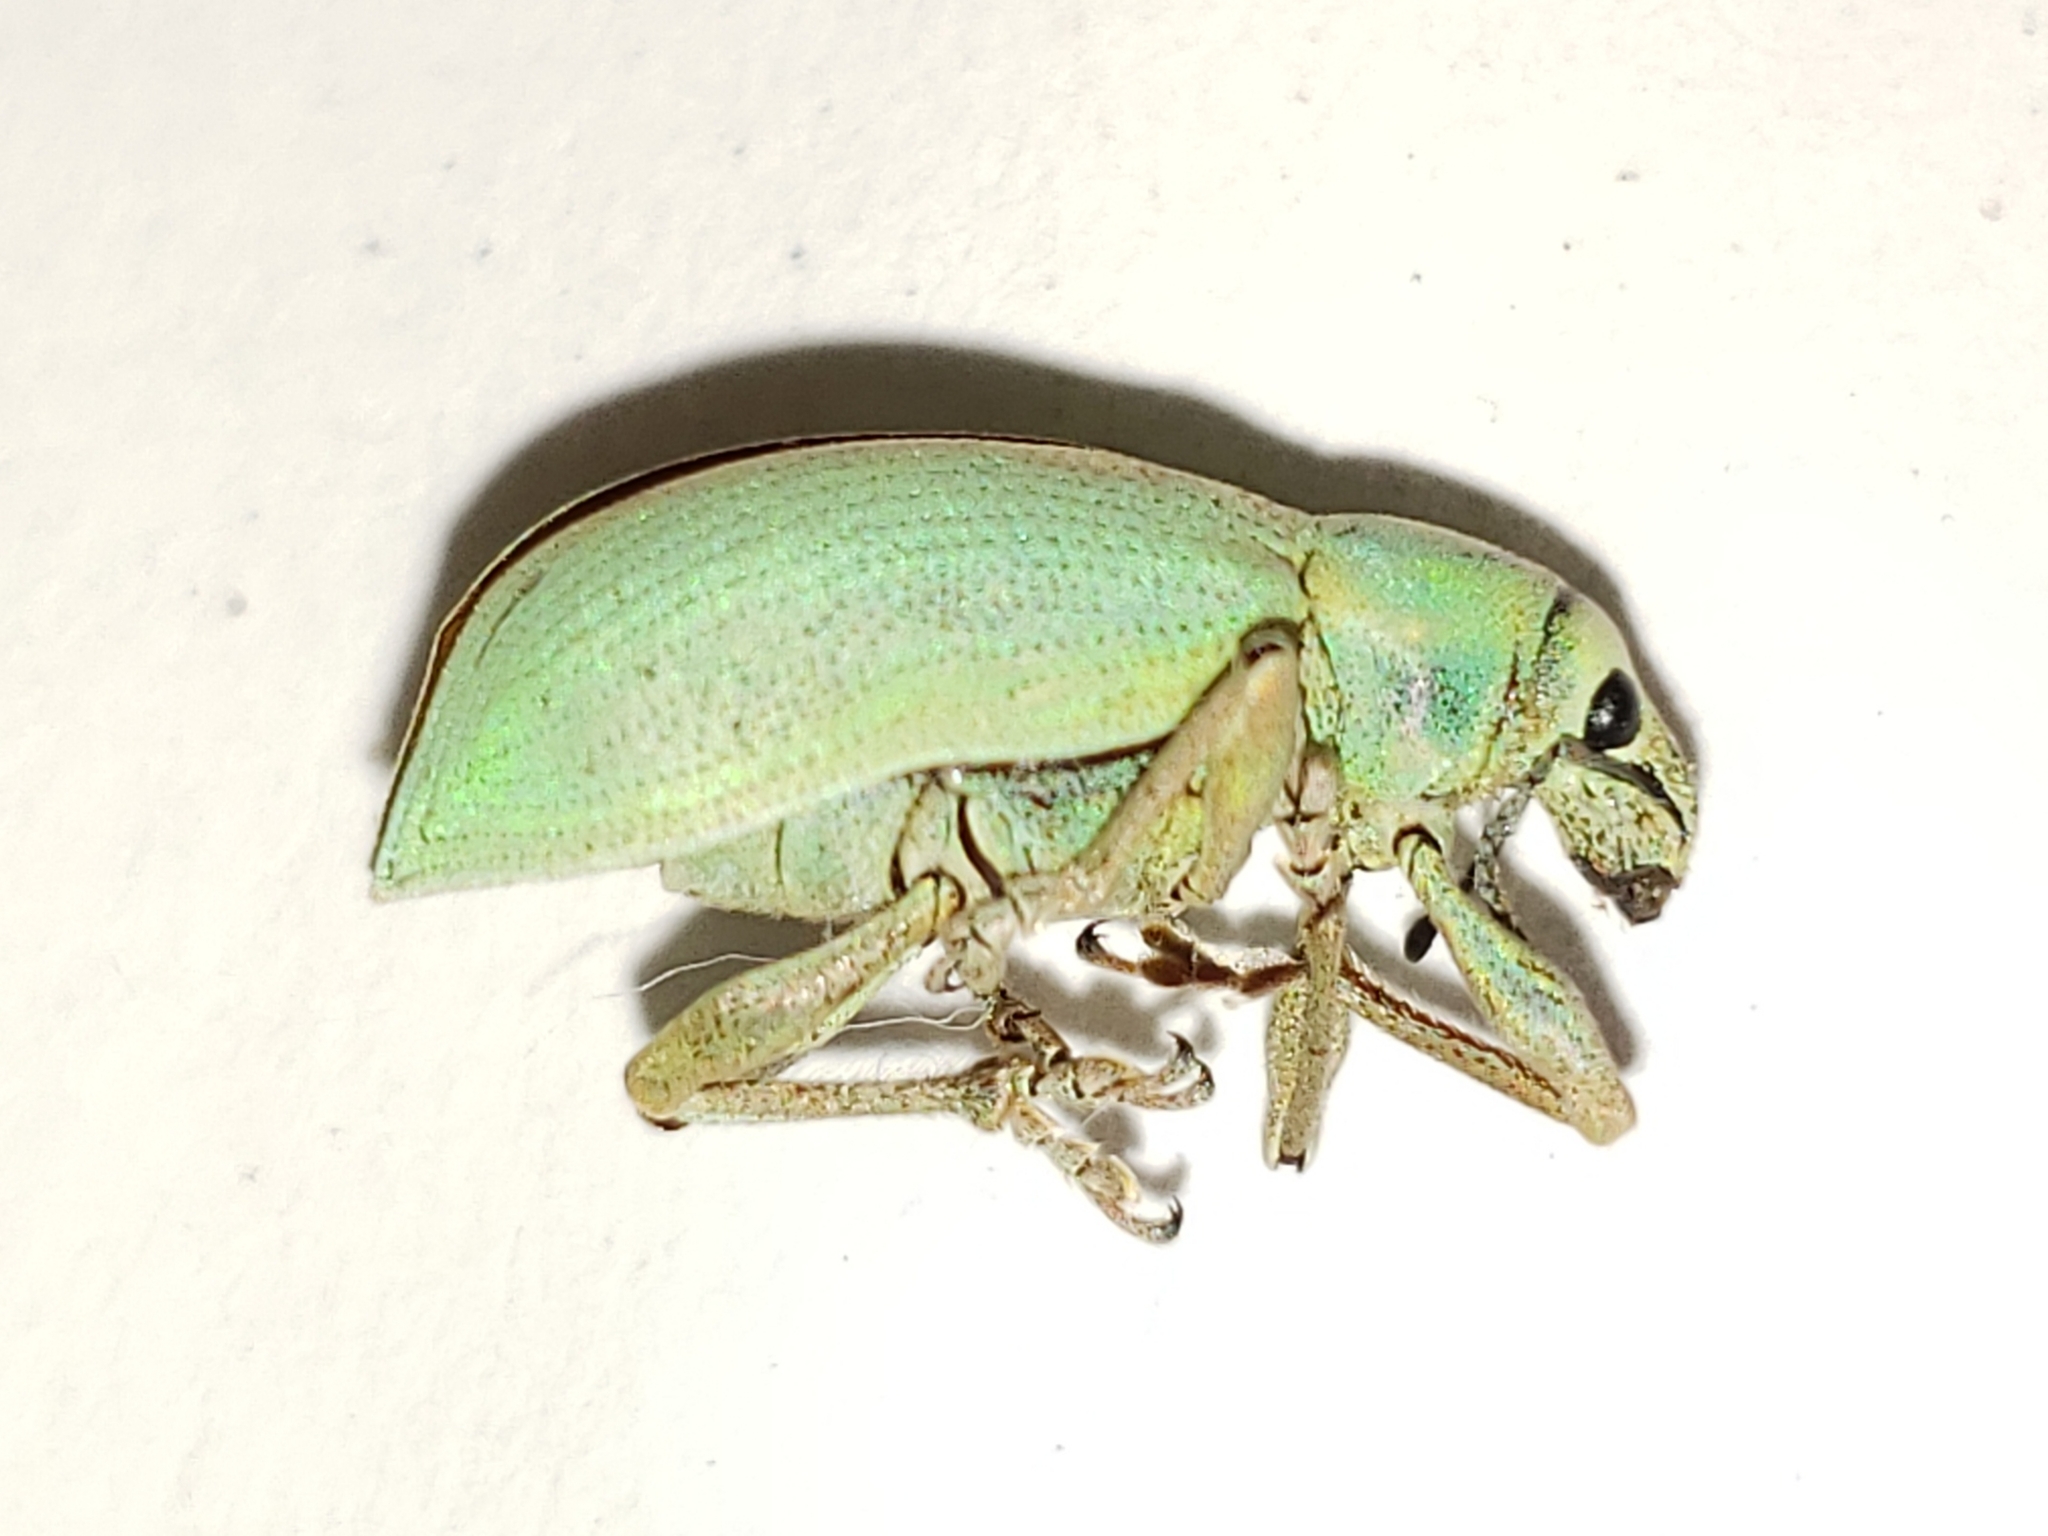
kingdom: Animalia
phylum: Arthropoda
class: Insecta
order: Coleoptera
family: Curculionidae
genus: Pachnaeus
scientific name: Pachnaeus litus
